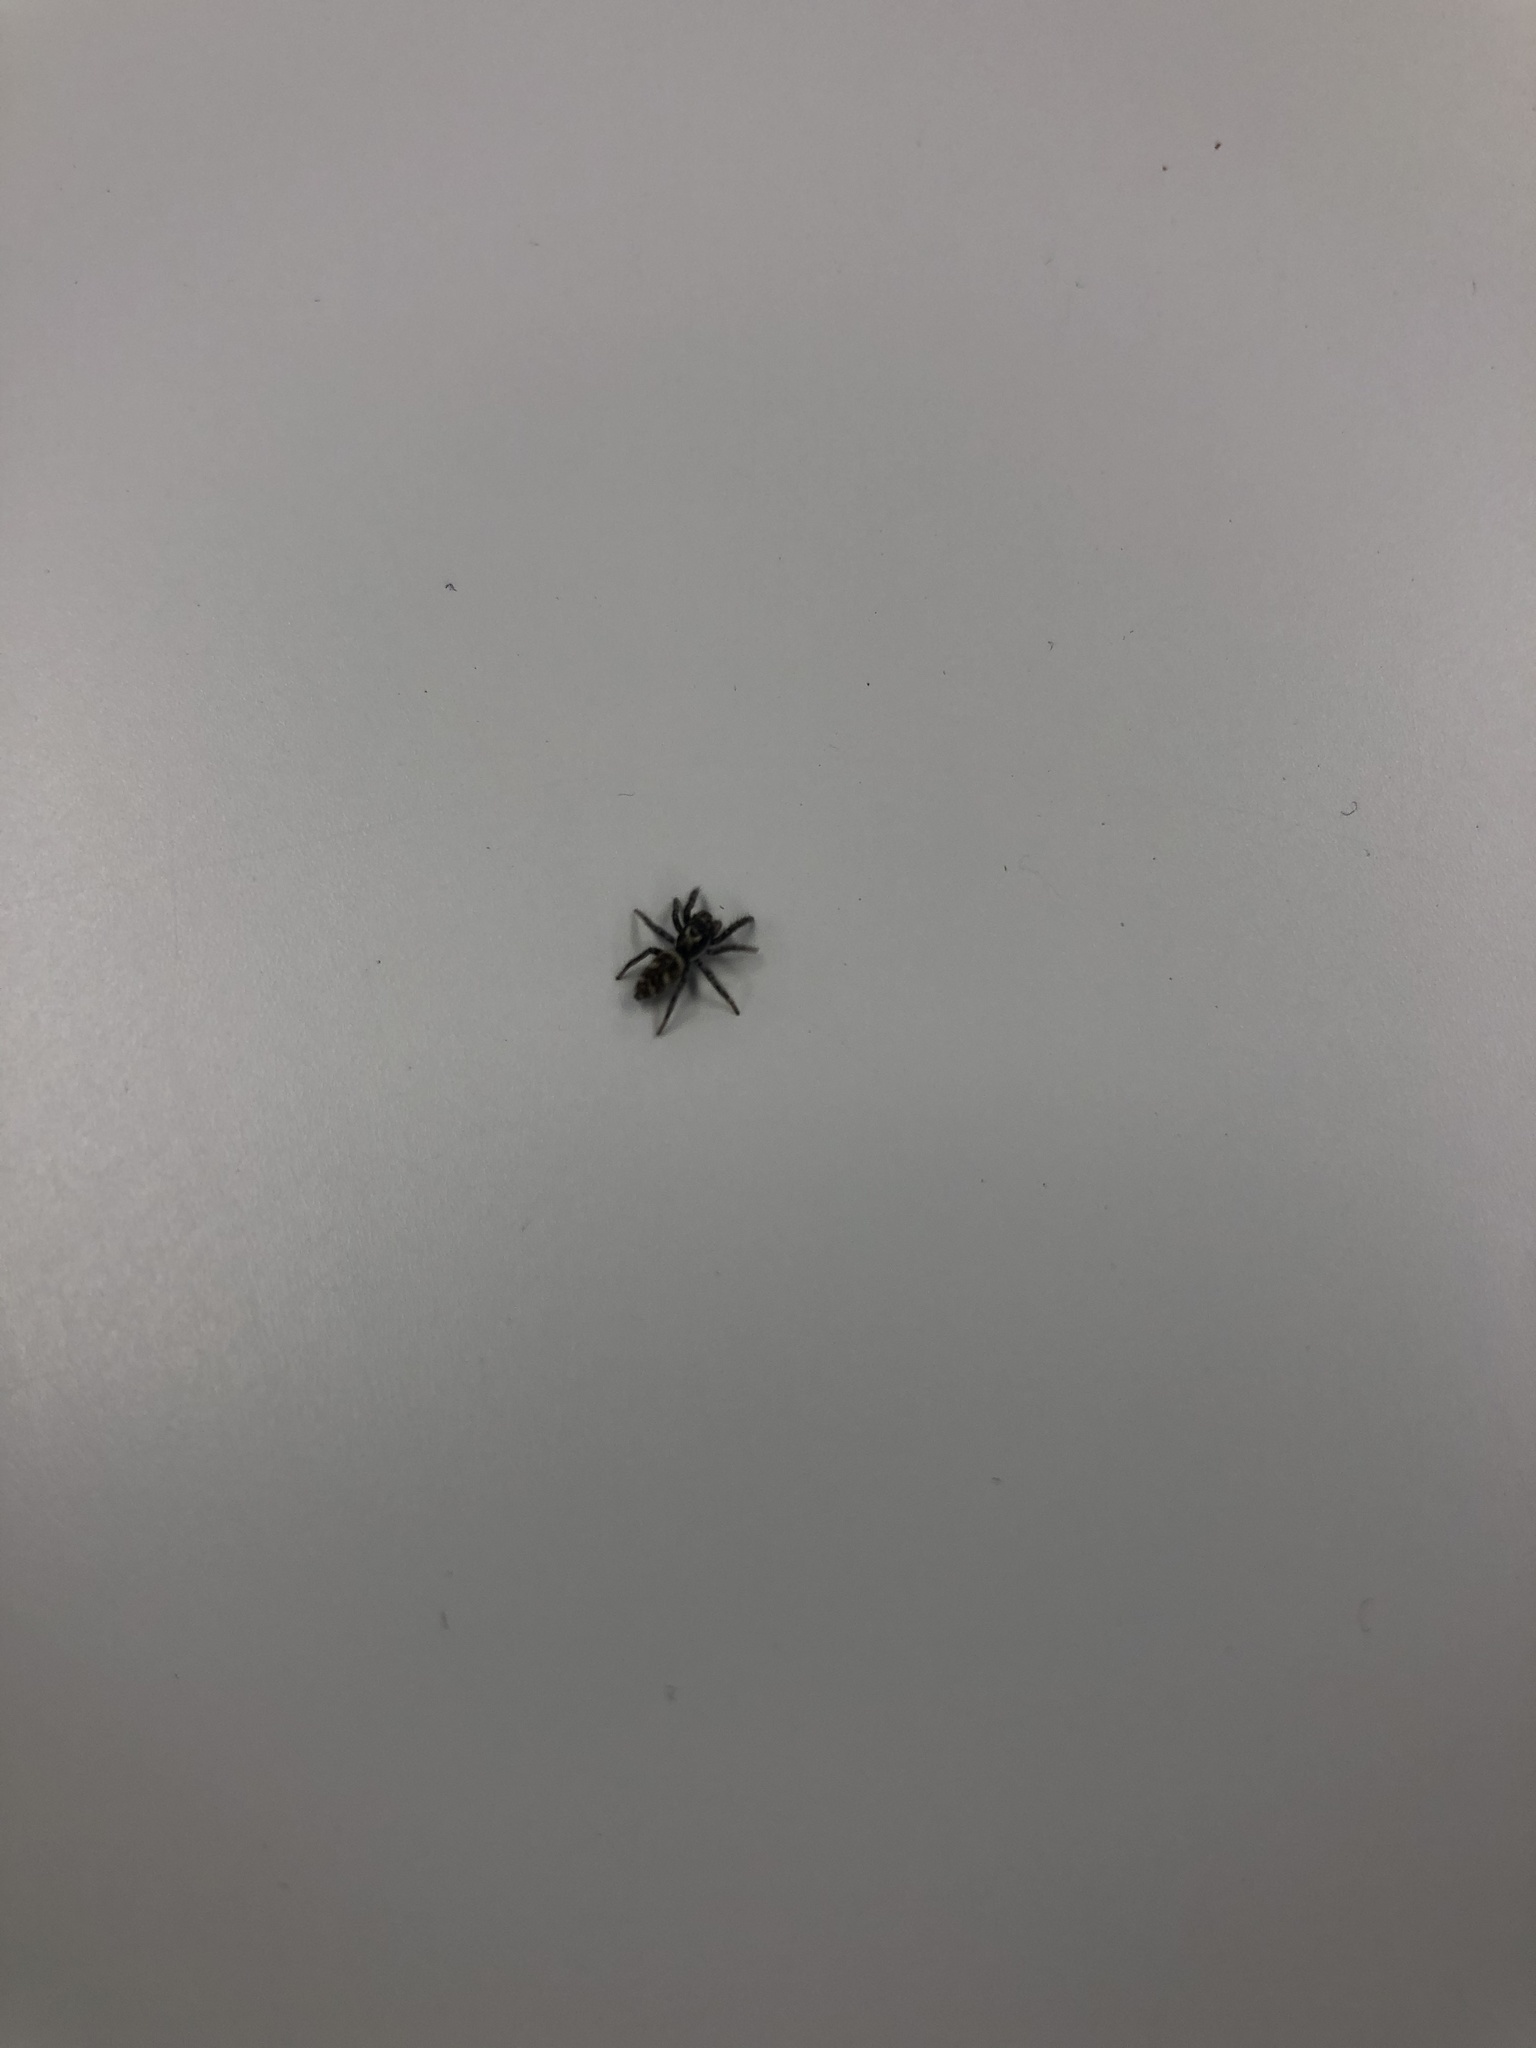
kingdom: Animalia
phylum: Arthropoda
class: Arachnida
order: Araneae
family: Salticidae
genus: Salticus
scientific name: Salticus scenicus
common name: Zebra jumper
